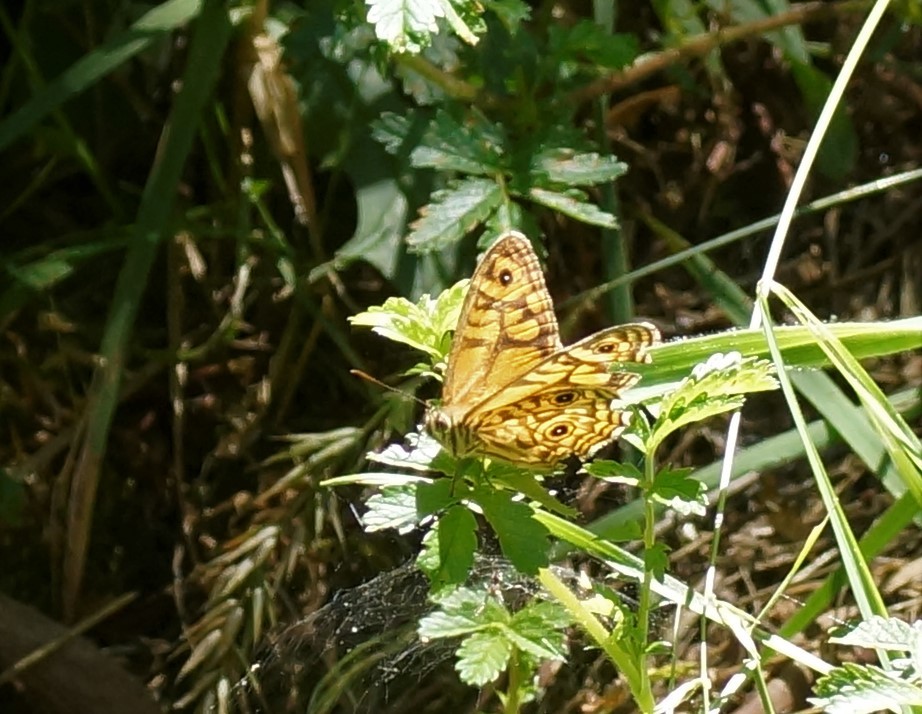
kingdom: Animalia
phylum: Arthropoda
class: Insecta
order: Lepidoptera
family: Nymphalidae
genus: Geitoneura
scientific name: Geitoneura acantha
